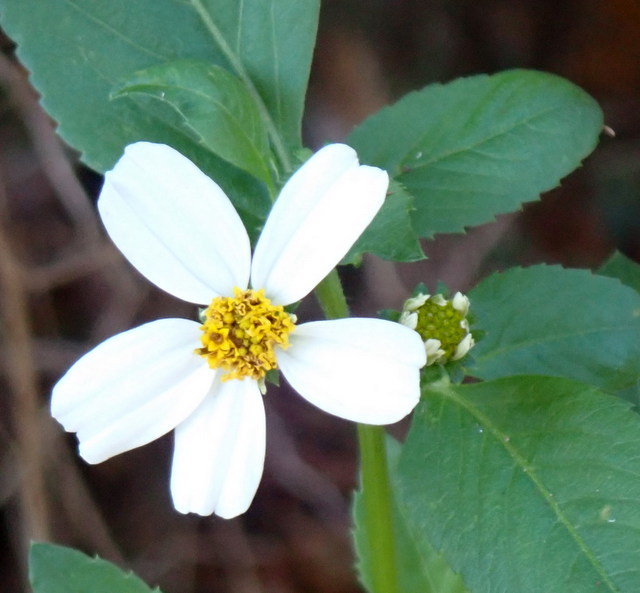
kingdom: Plantae
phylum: Tracheophyta
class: Magnoliopsida
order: Asterales
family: Asteraceae
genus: Bidens
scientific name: Bidens alba
